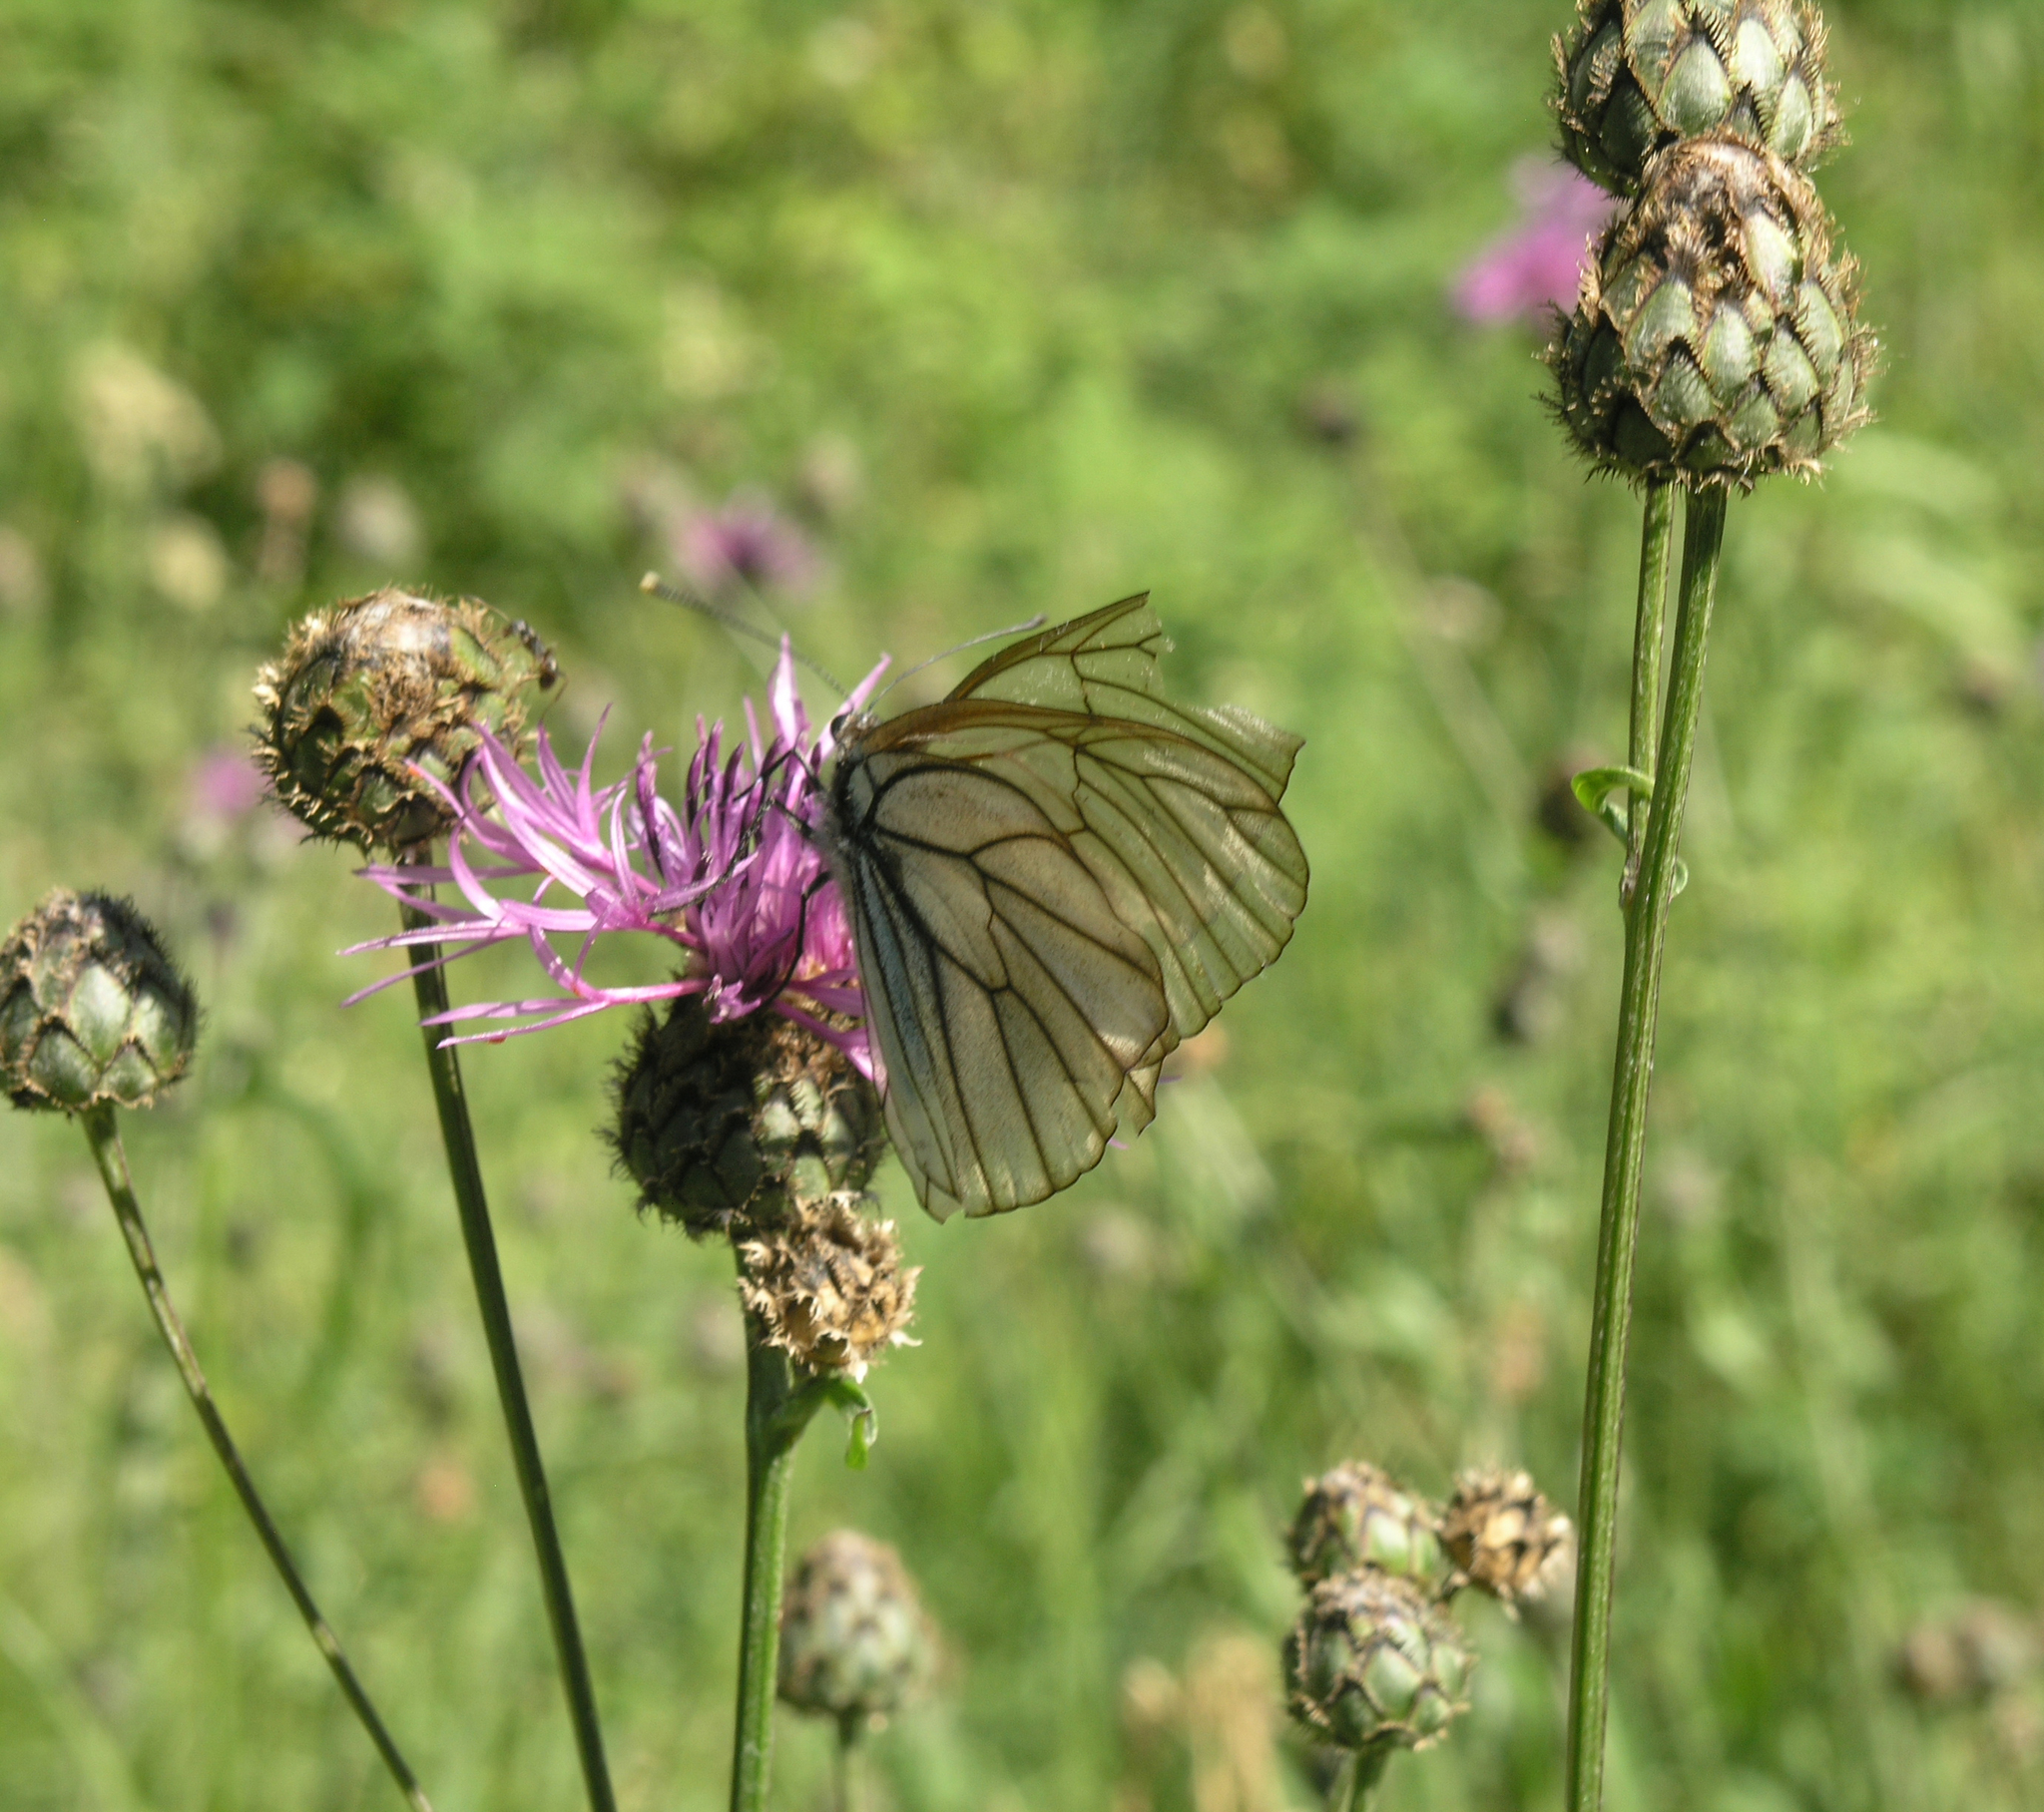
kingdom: Plantae
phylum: Tracheophyta
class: Magnoliopsida
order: Asterales
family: Asteraceae
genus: Centaurea
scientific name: Centaurea scabiosa
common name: Greater knapweed
